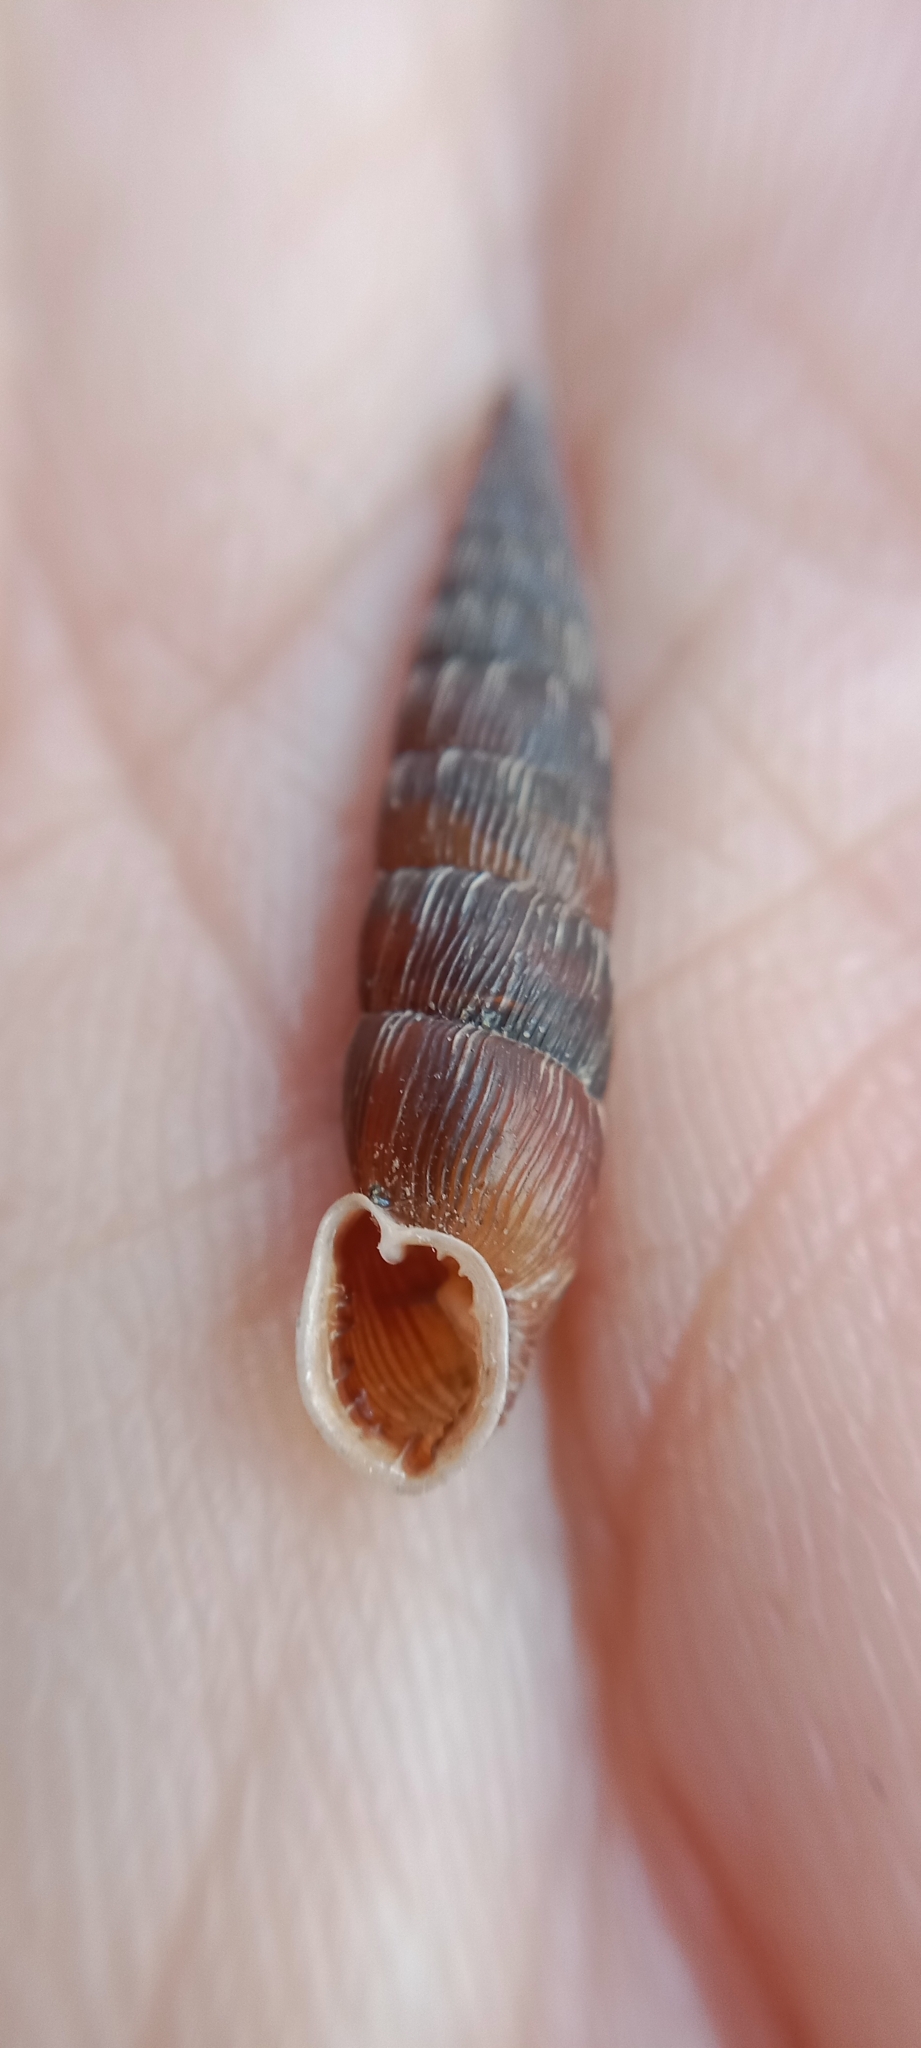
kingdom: Animalia
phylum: Mollusca
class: Gastropoda
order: Stylommatophora
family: Clausiliidae
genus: Laciniaria
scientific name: Laciniaria plicata
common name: Single-lipped door snail
